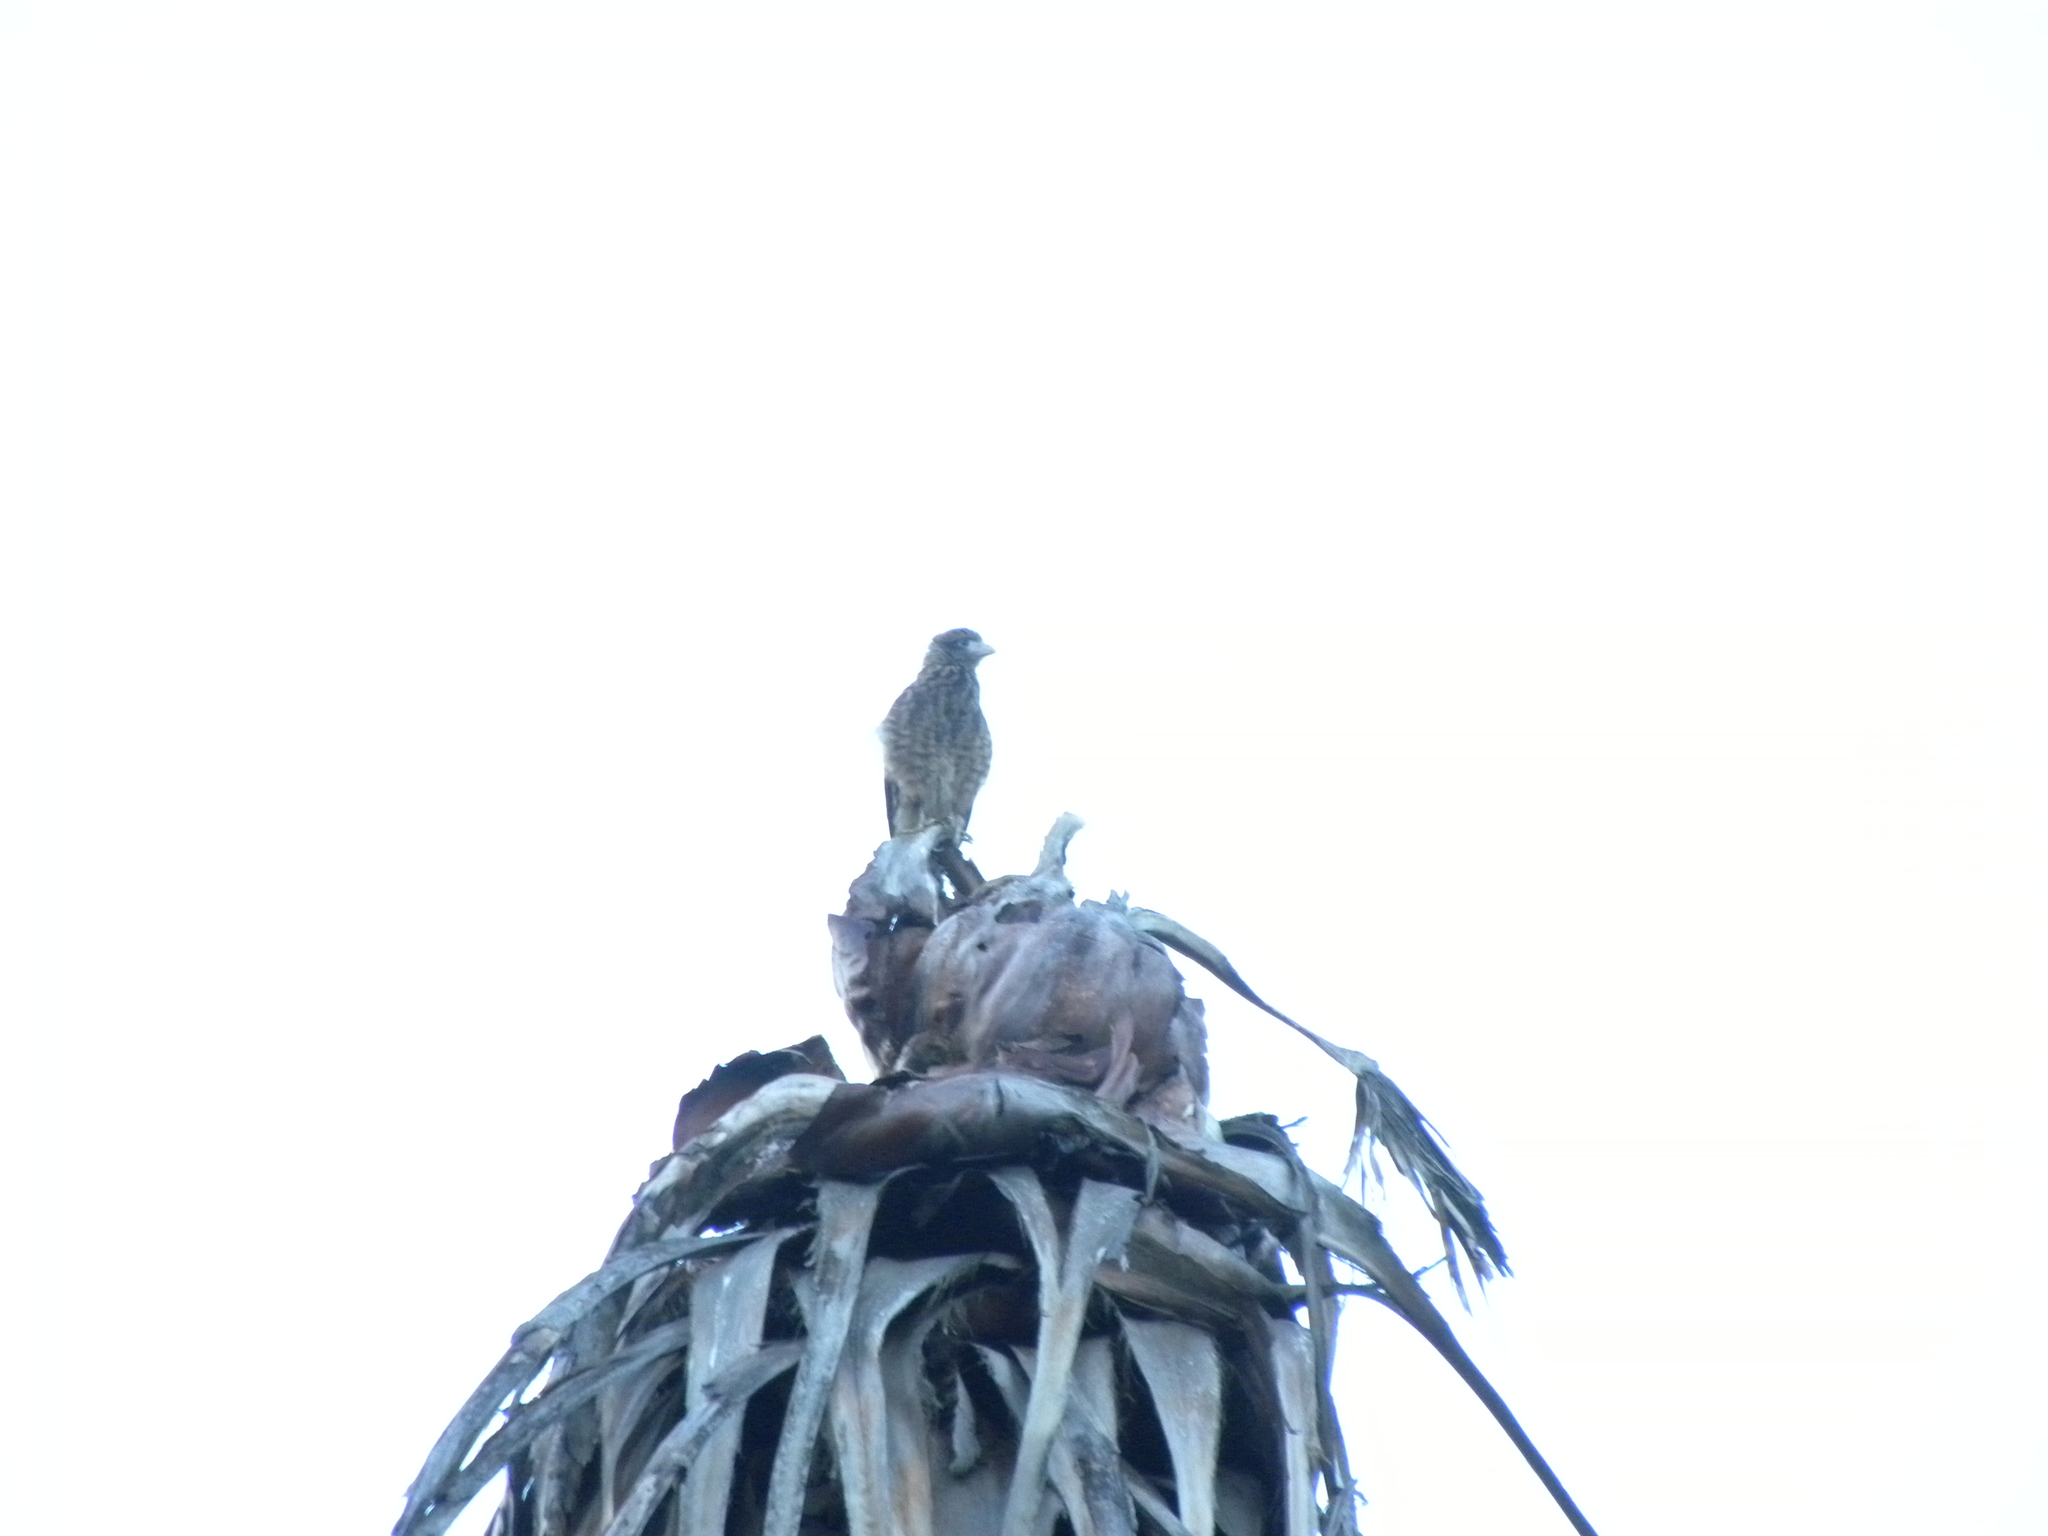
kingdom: Animalia
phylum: Chordata
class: Aves
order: Falconiformes
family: Falconidae
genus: Daptrius
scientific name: Daptrius
